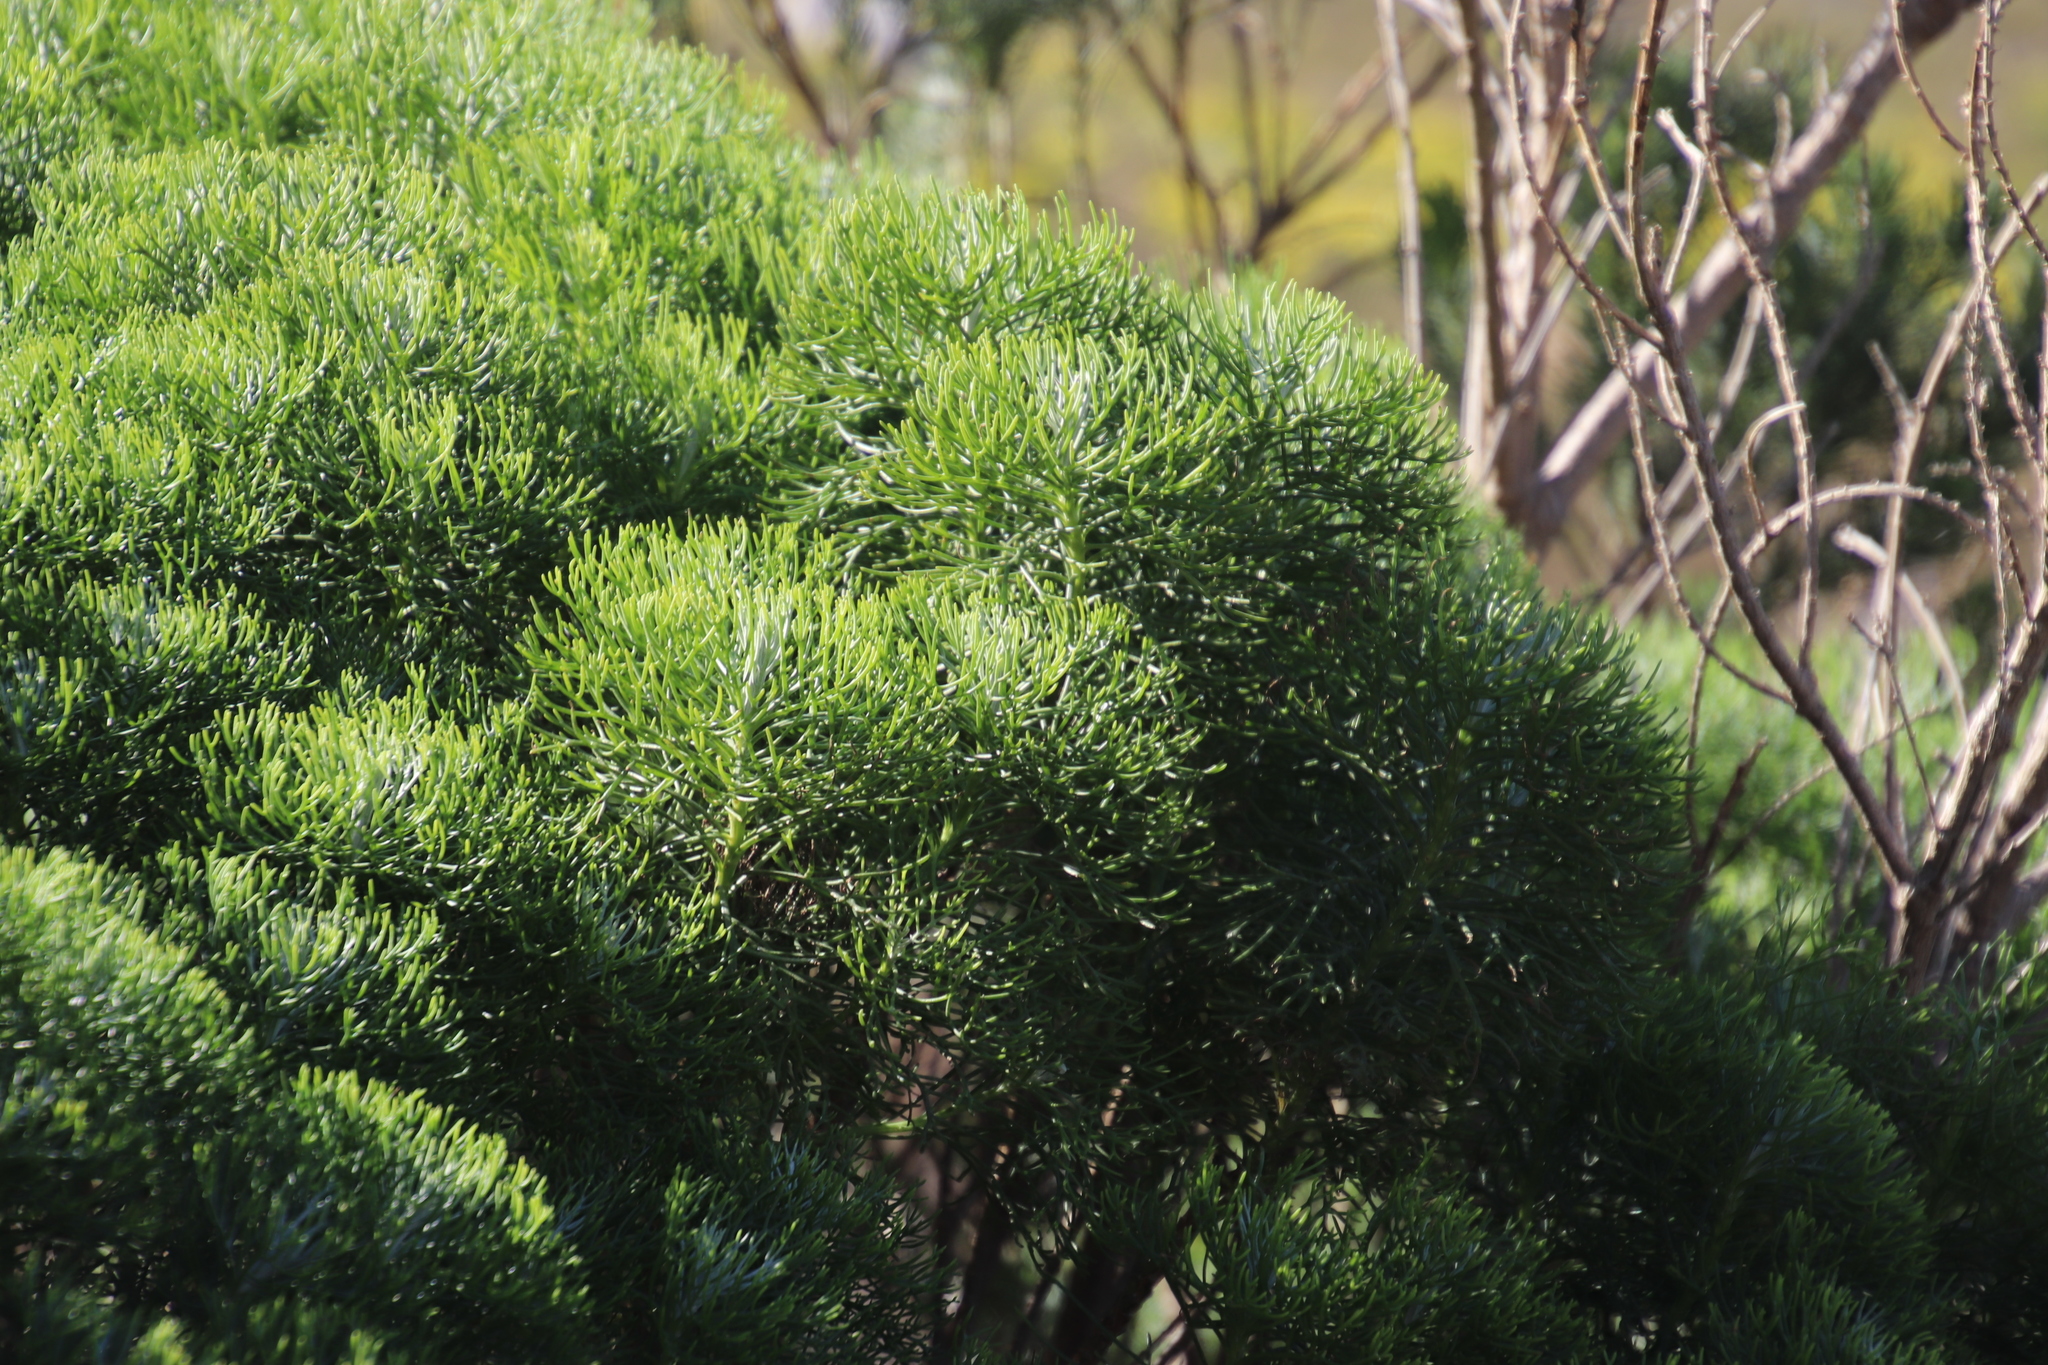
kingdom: Plantae
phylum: Tracheophyta
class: Magnoliopsida
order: Asterales
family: Asteraceae
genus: Hymenolepis
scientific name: Hymenolepis crithmifolia
